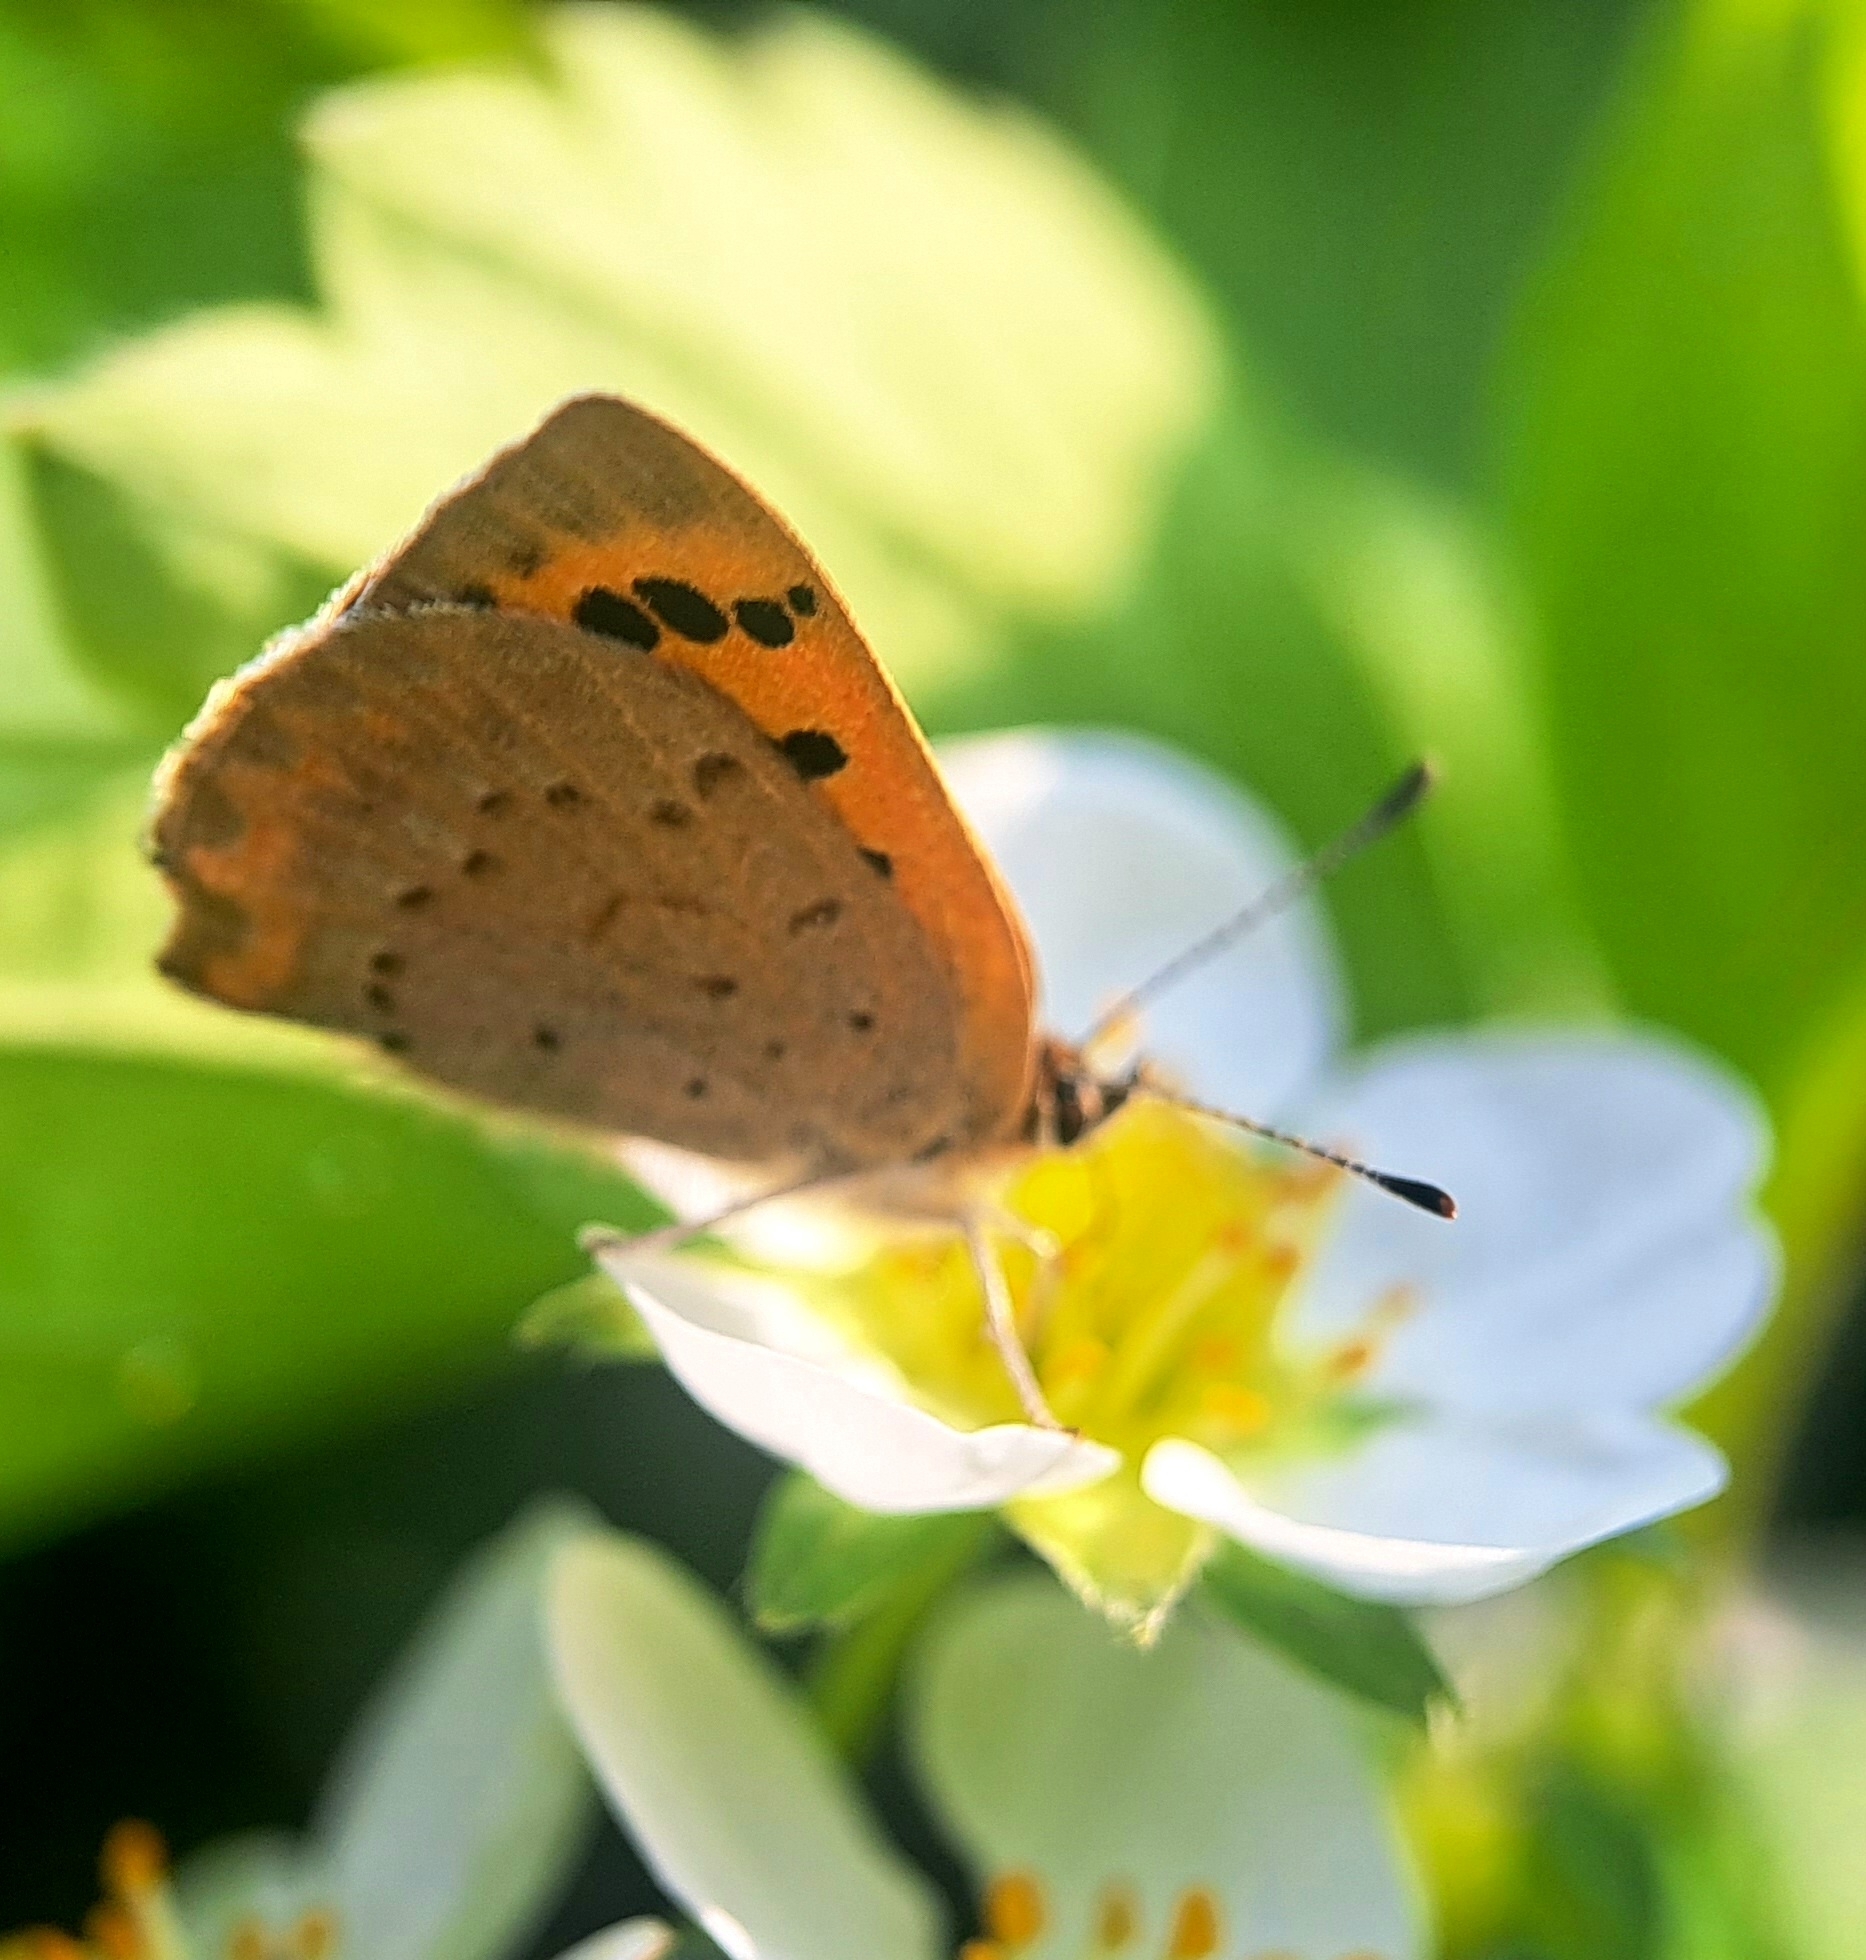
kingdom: Animalia
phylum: Arthropoda
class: Insecta
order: Lepidoptera
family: Lycaenidae
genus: Lycaena
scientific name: Lycaena phlaeas
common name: Small copper
